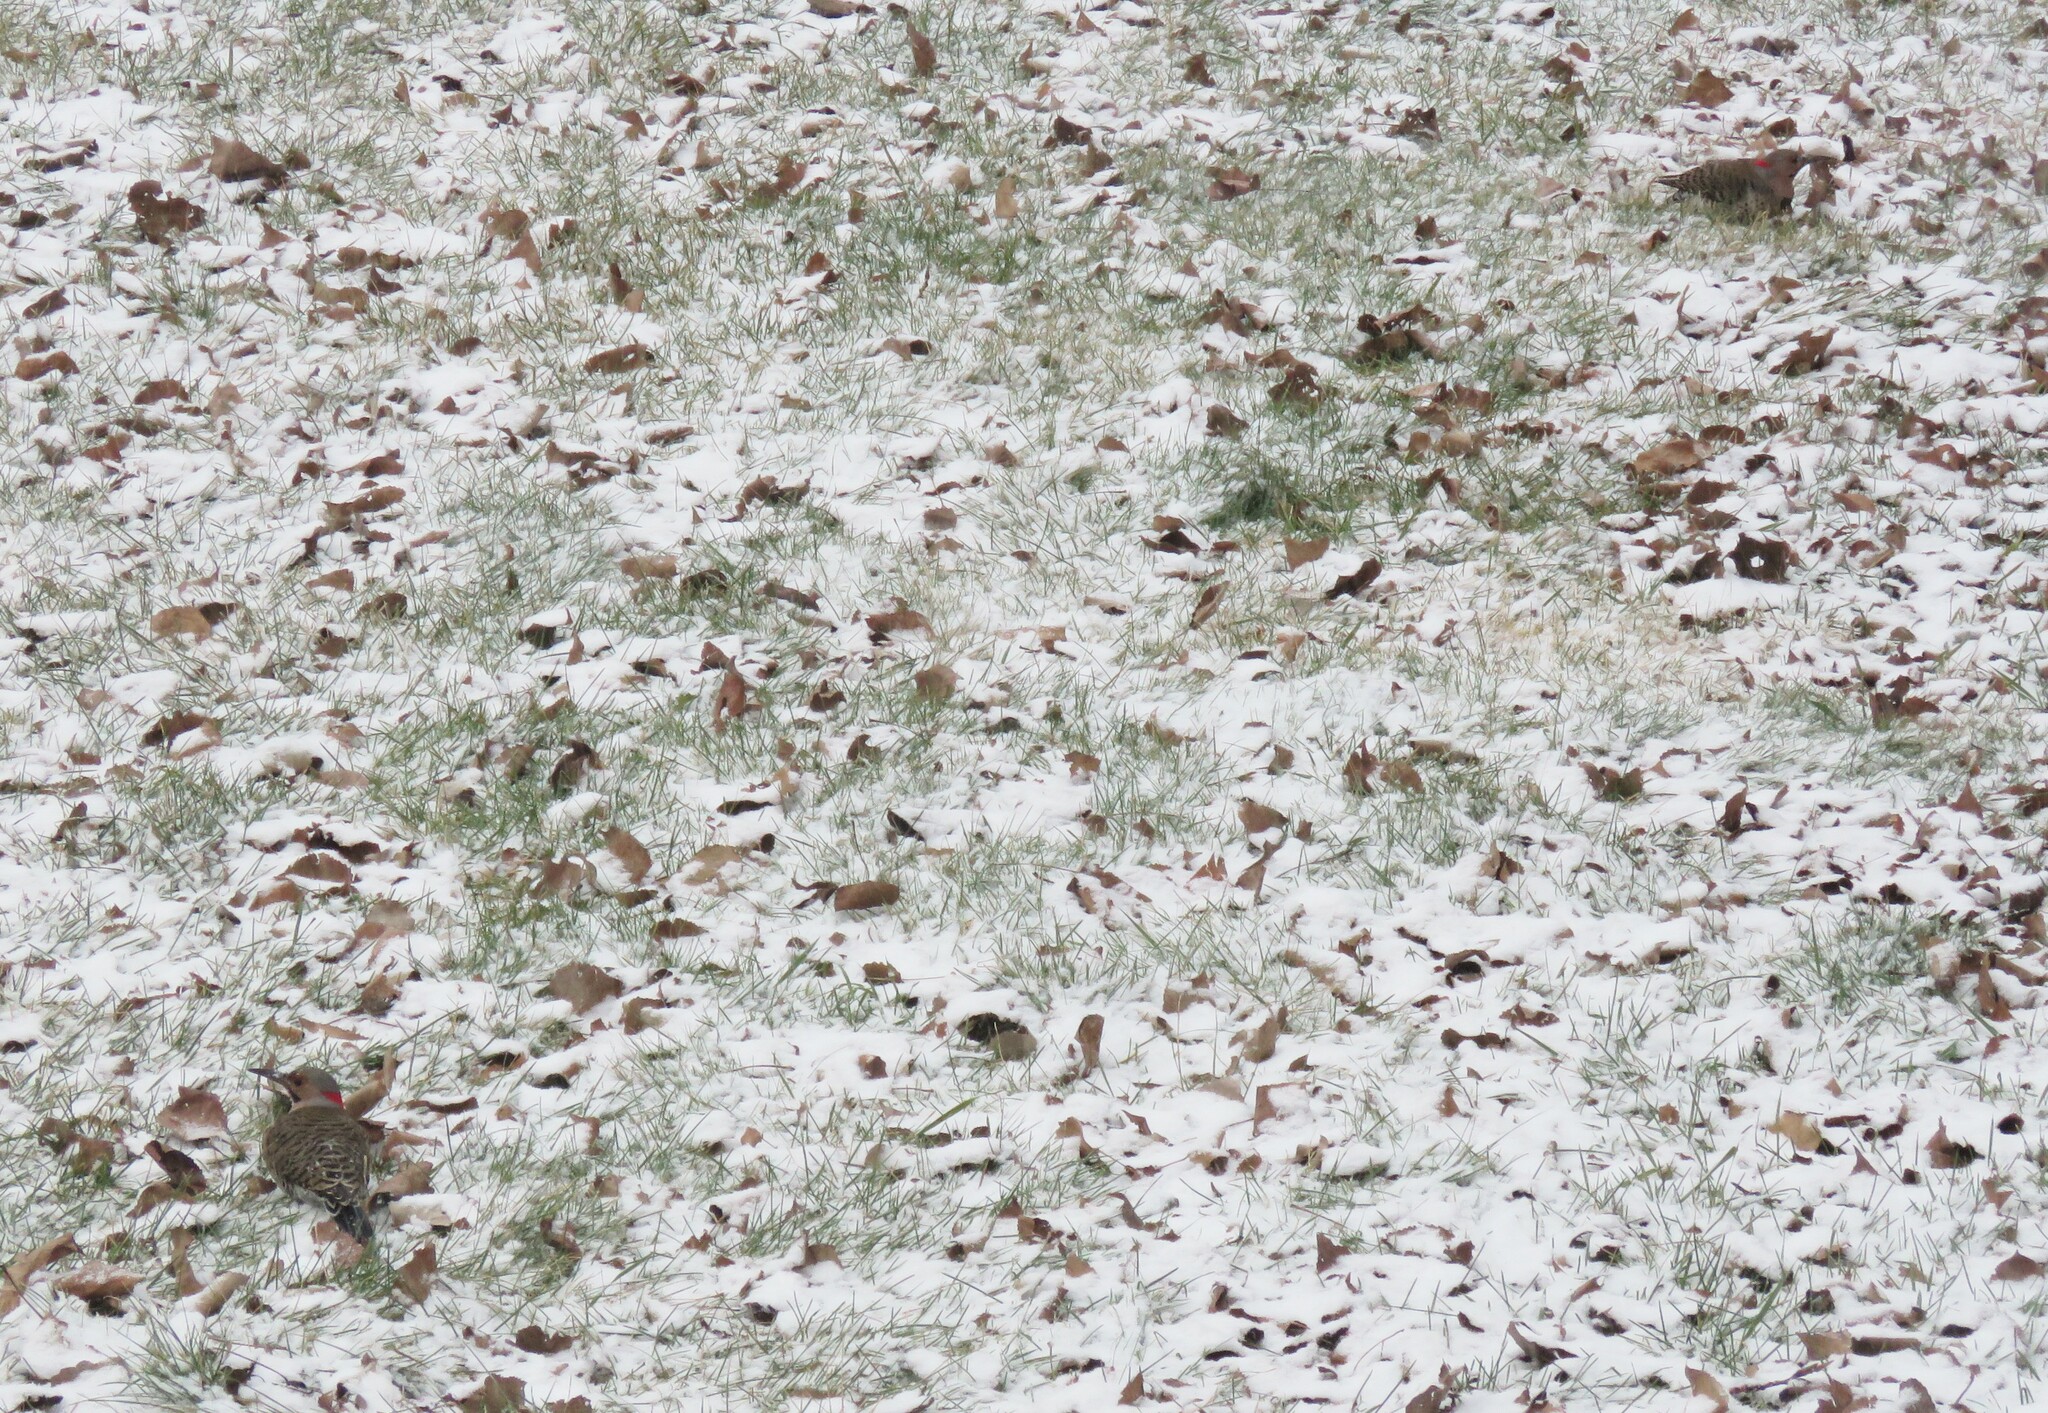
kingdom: Animalia
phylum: Chordata
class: Aves
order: Piciformes
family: Picidae
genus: Colaptes
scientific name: Colaptes auratus
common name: Northern flicker
